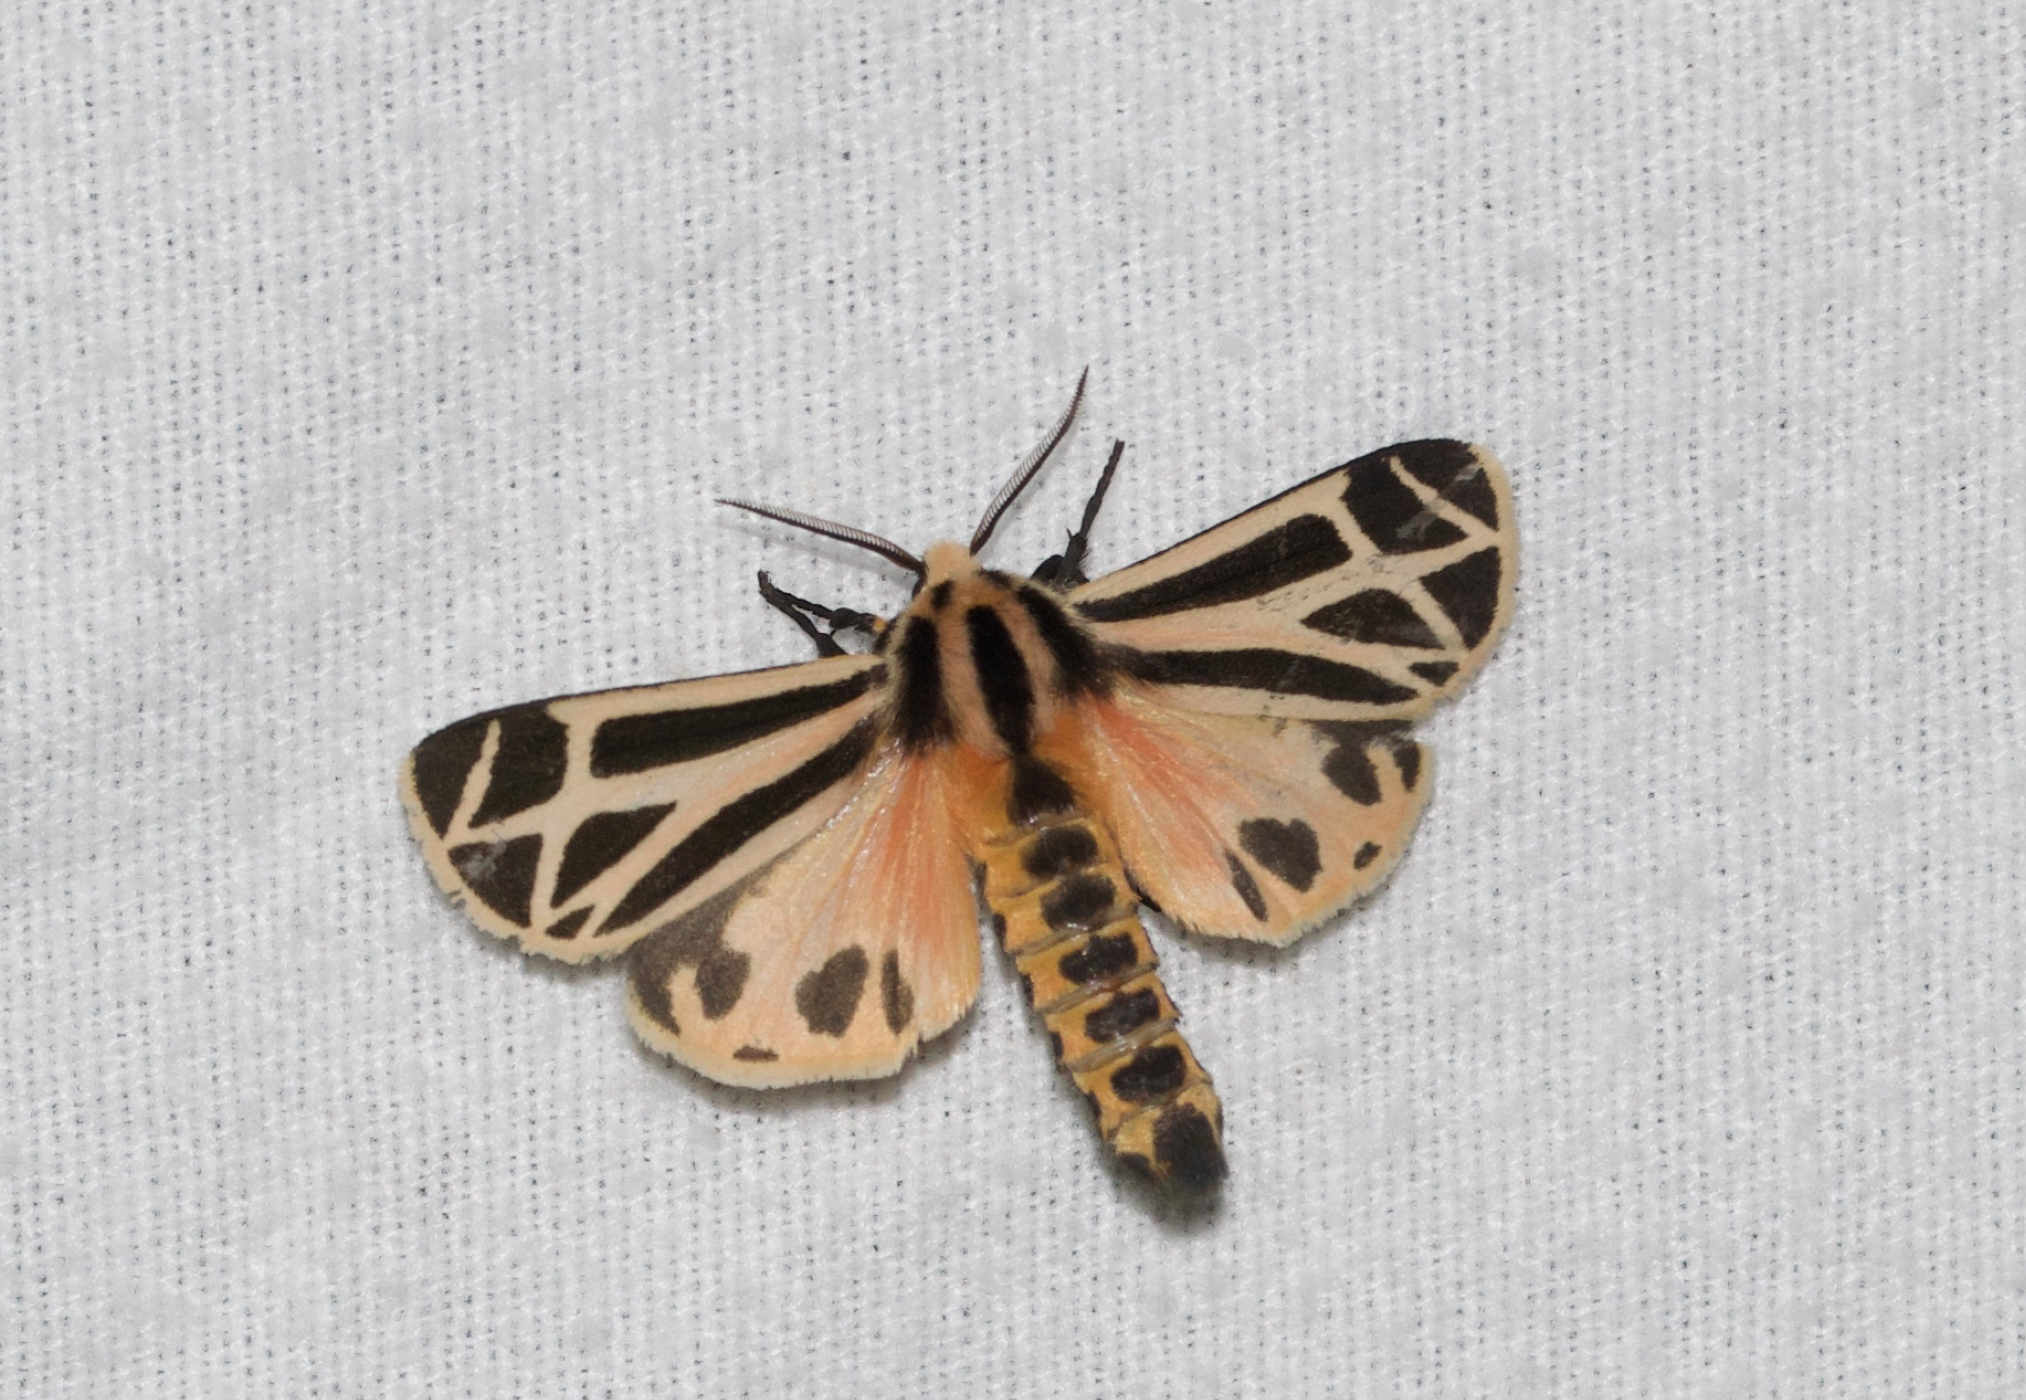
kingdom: Animalia
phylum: Arthropoda
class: Insecta
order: Lepidoptera
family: Erebidae
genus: Apantesis
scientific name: Apantesis phalerata
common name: Harnessed tiger moth
